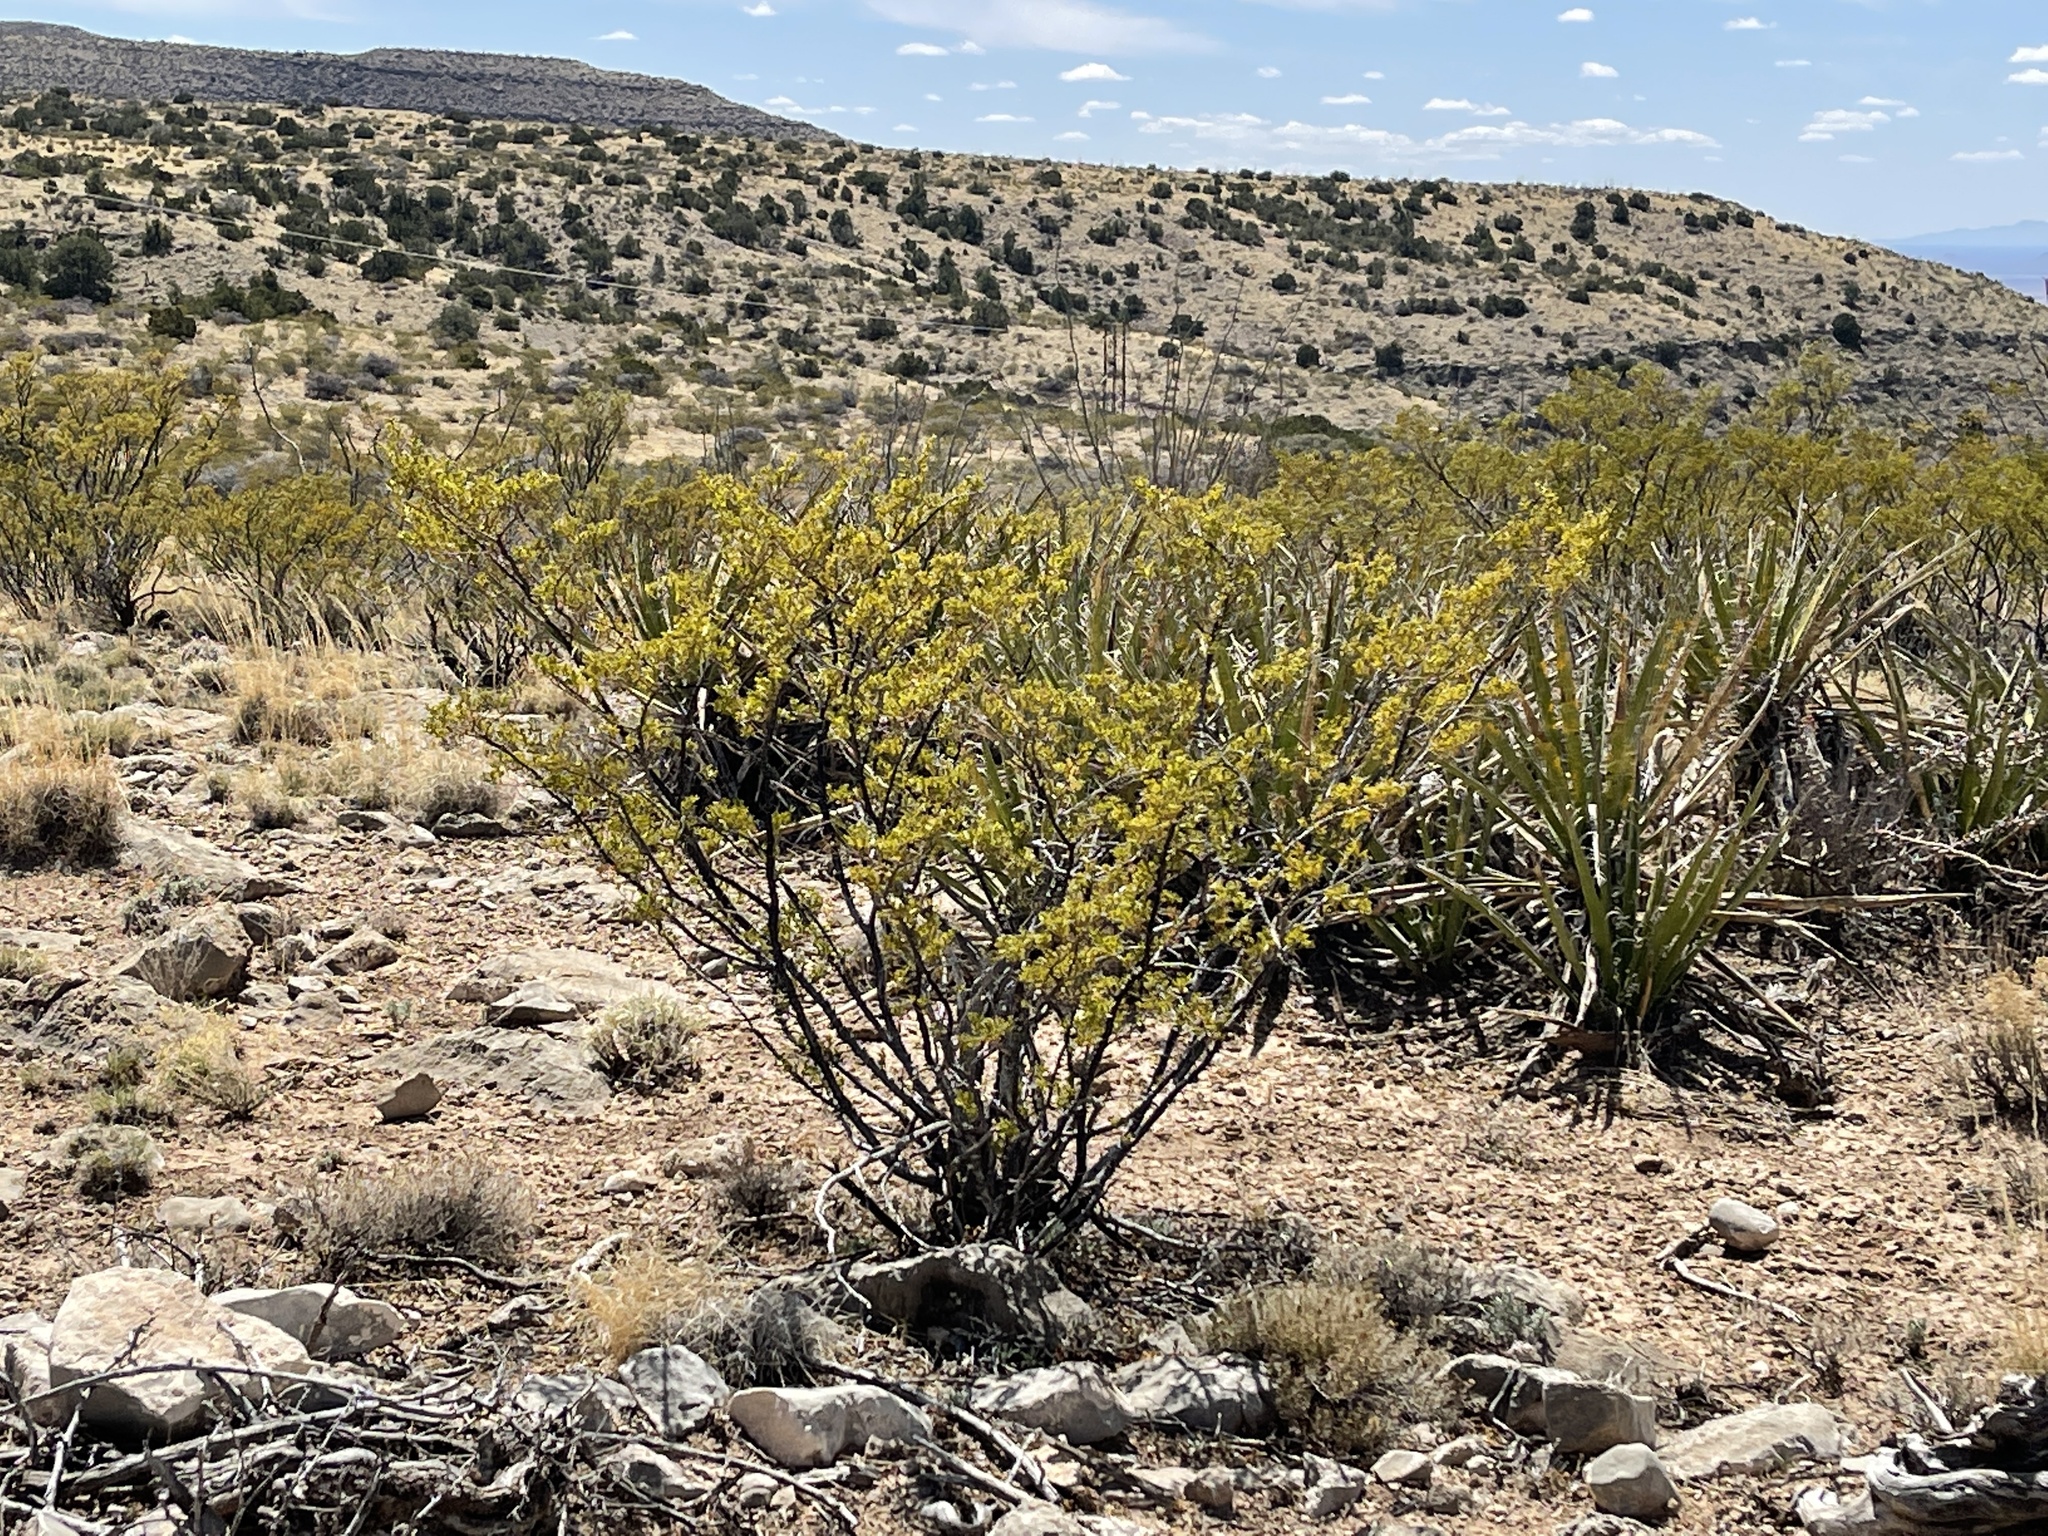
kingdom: Plantae
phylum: Tracheophyta
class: Magnoliopsida
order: Zygophyllales
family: Zygophyllaceae
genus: Larrea
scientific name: Larrea tridentata
